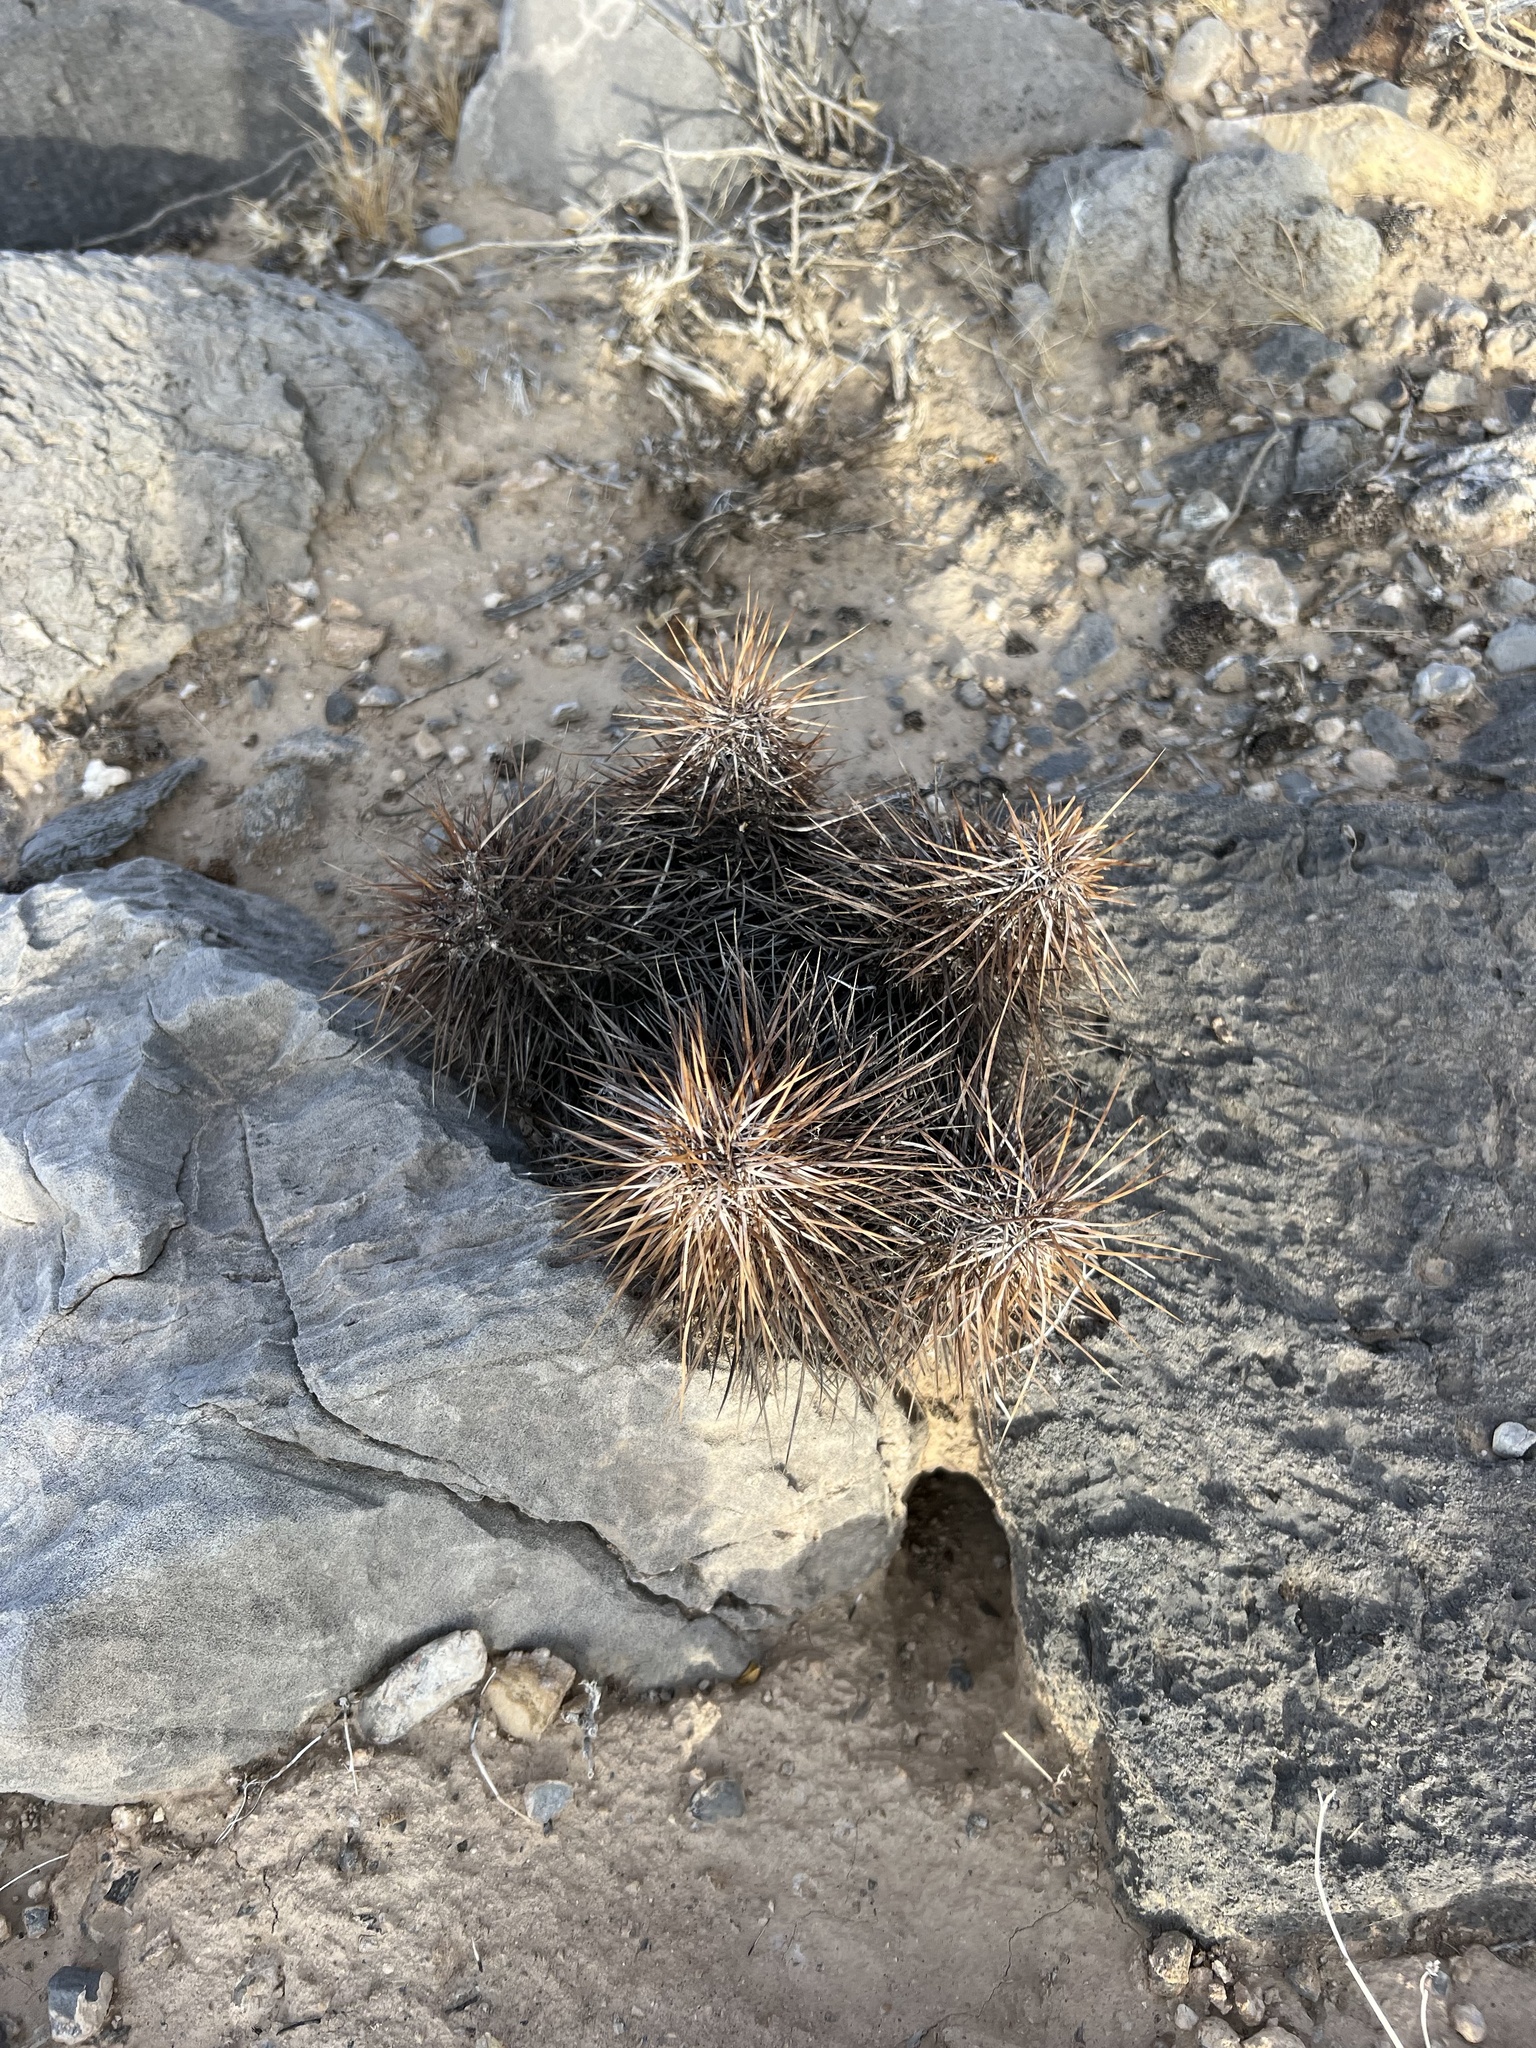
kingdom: Plantae
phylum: Tracheophyta
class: Magnoliopsida
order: Caryophyllales
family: Cactaceae
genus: Echinocereus
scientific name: Echinocereus engelmannii
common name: Engelmann's hedgehog cactus
